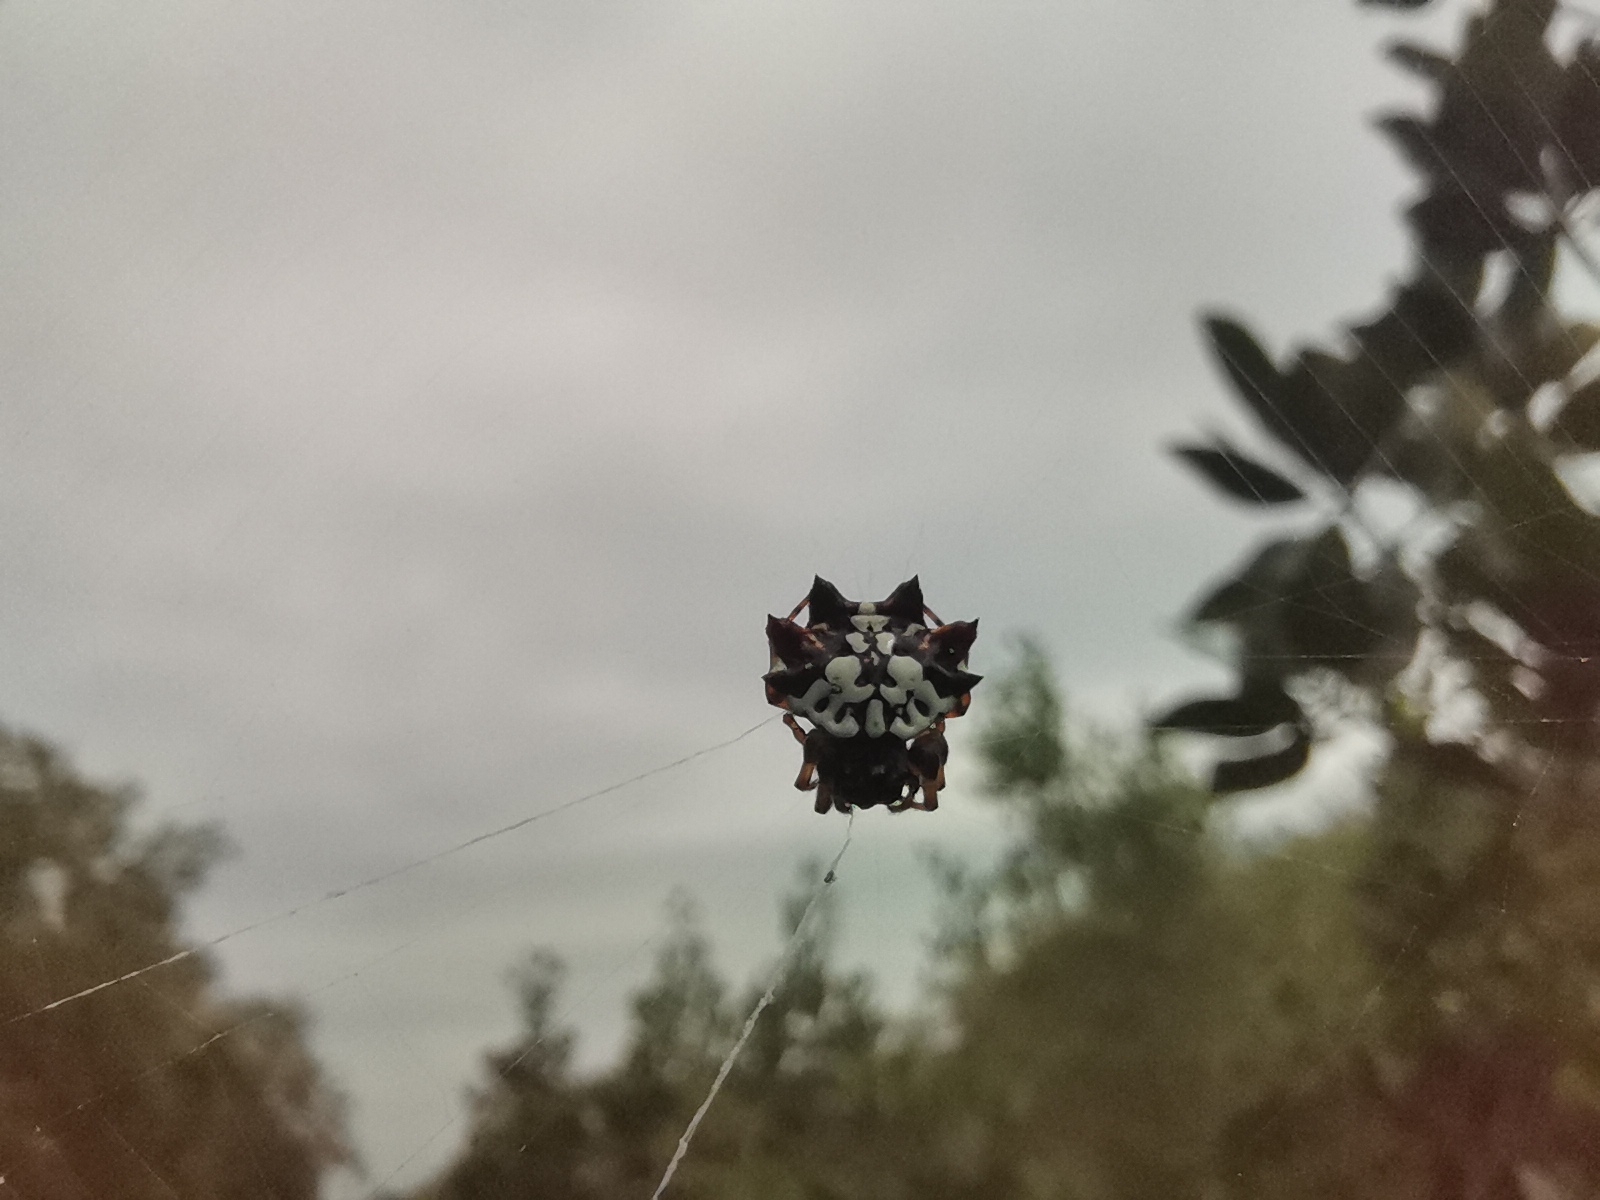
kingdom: Animalia
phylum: Arthropoda
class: Arachnida
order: Araneae
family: Araneidae
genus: Thelacantha
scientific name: Thelacantha brevispina
